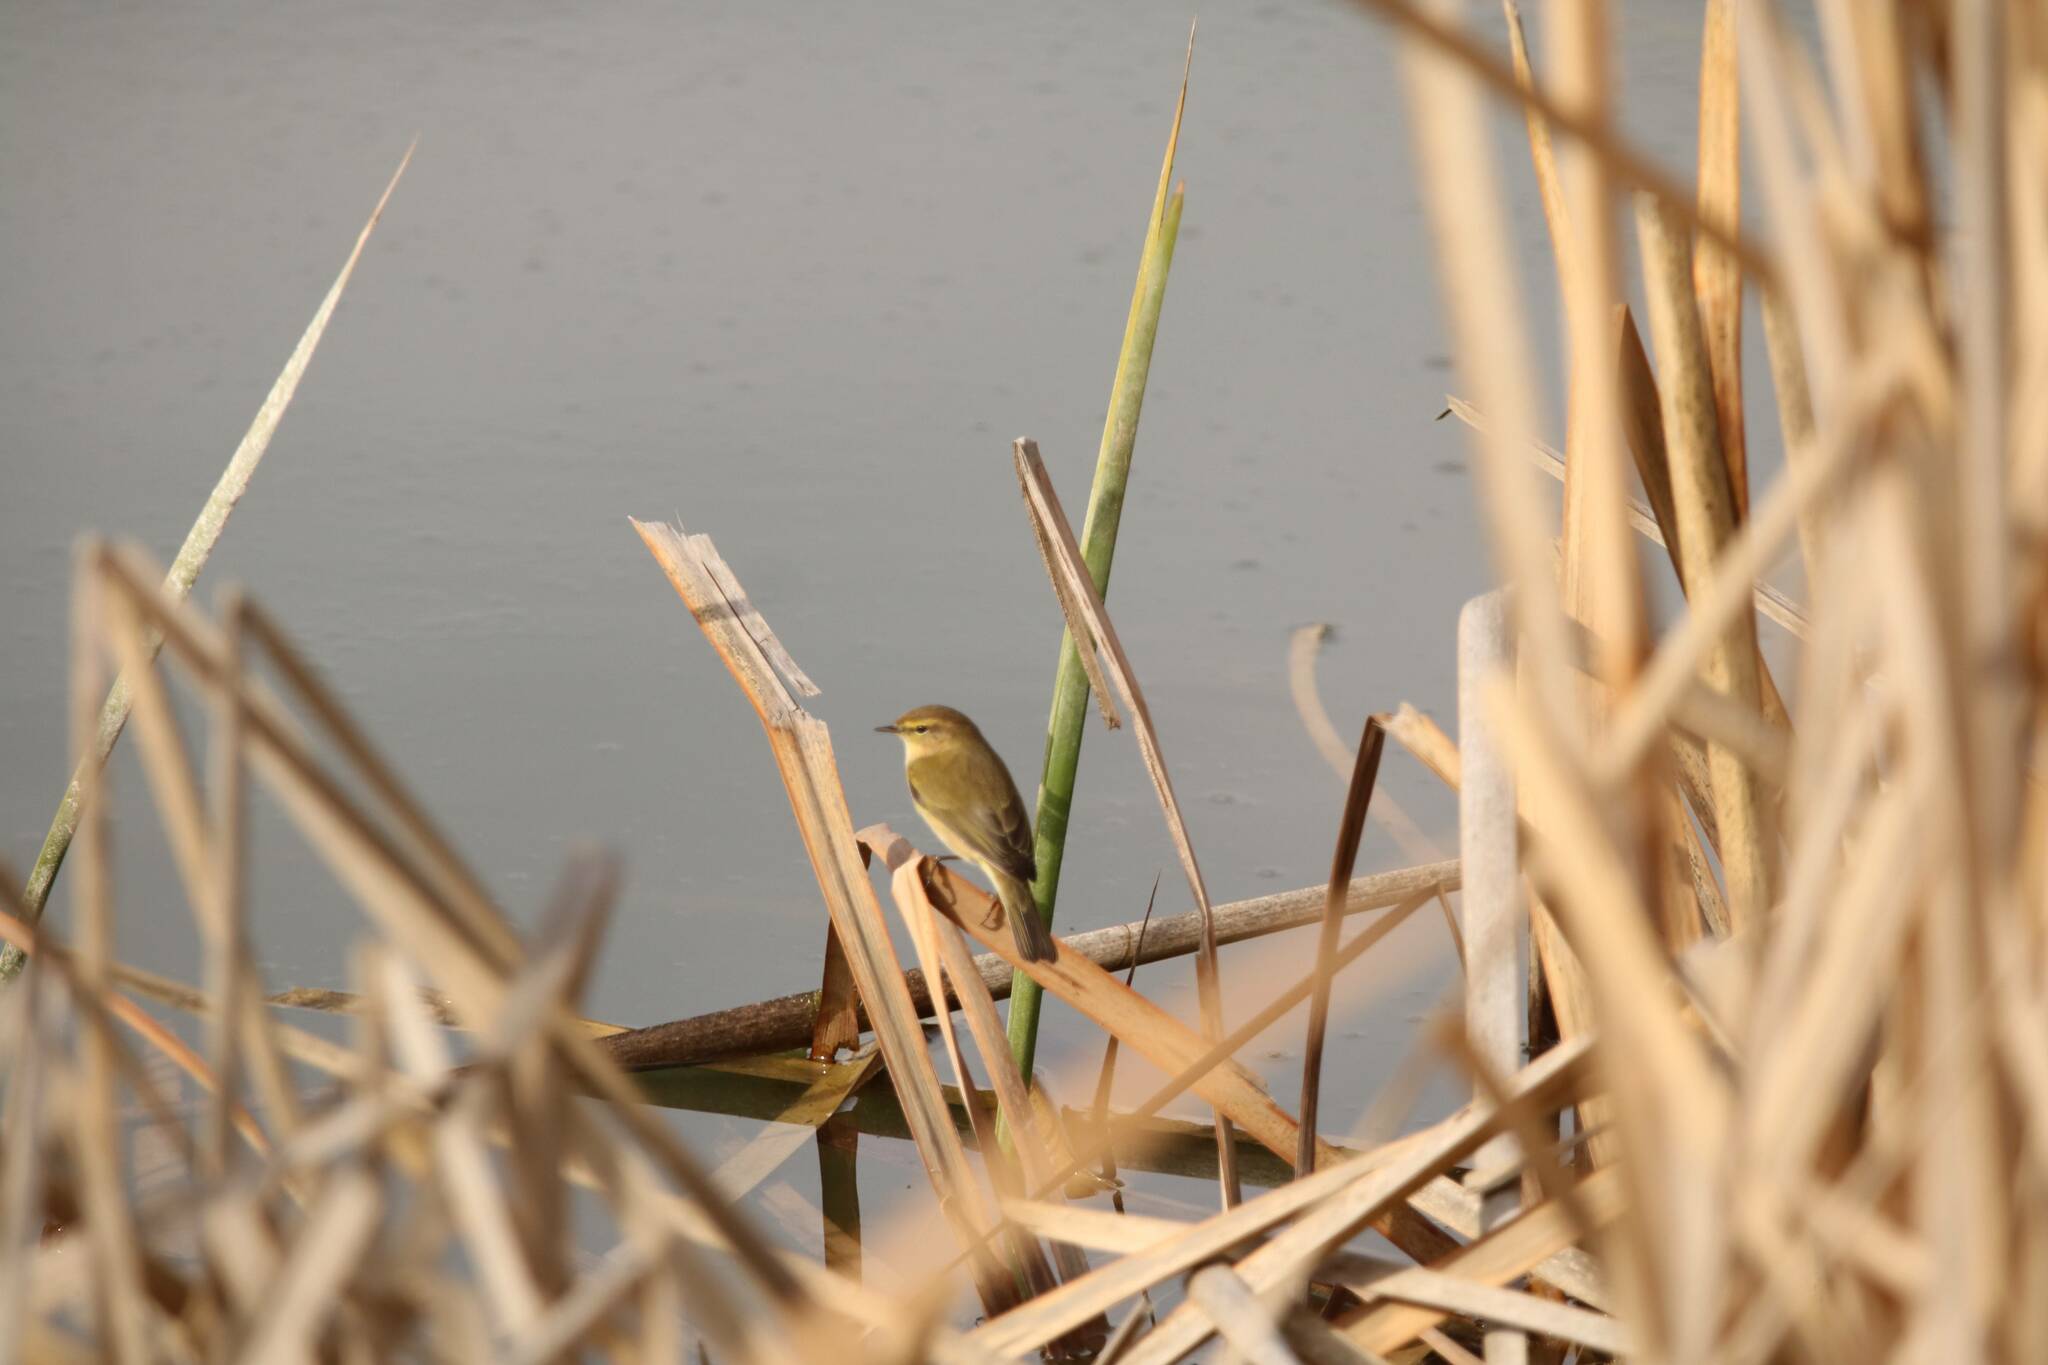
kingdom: Animalia
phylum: Chordata
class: Aves
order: Passeriformes
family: Phylloscopidae
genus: Phylloscopus
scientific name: Phylloscopus collybita
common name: Common chiffchaff
